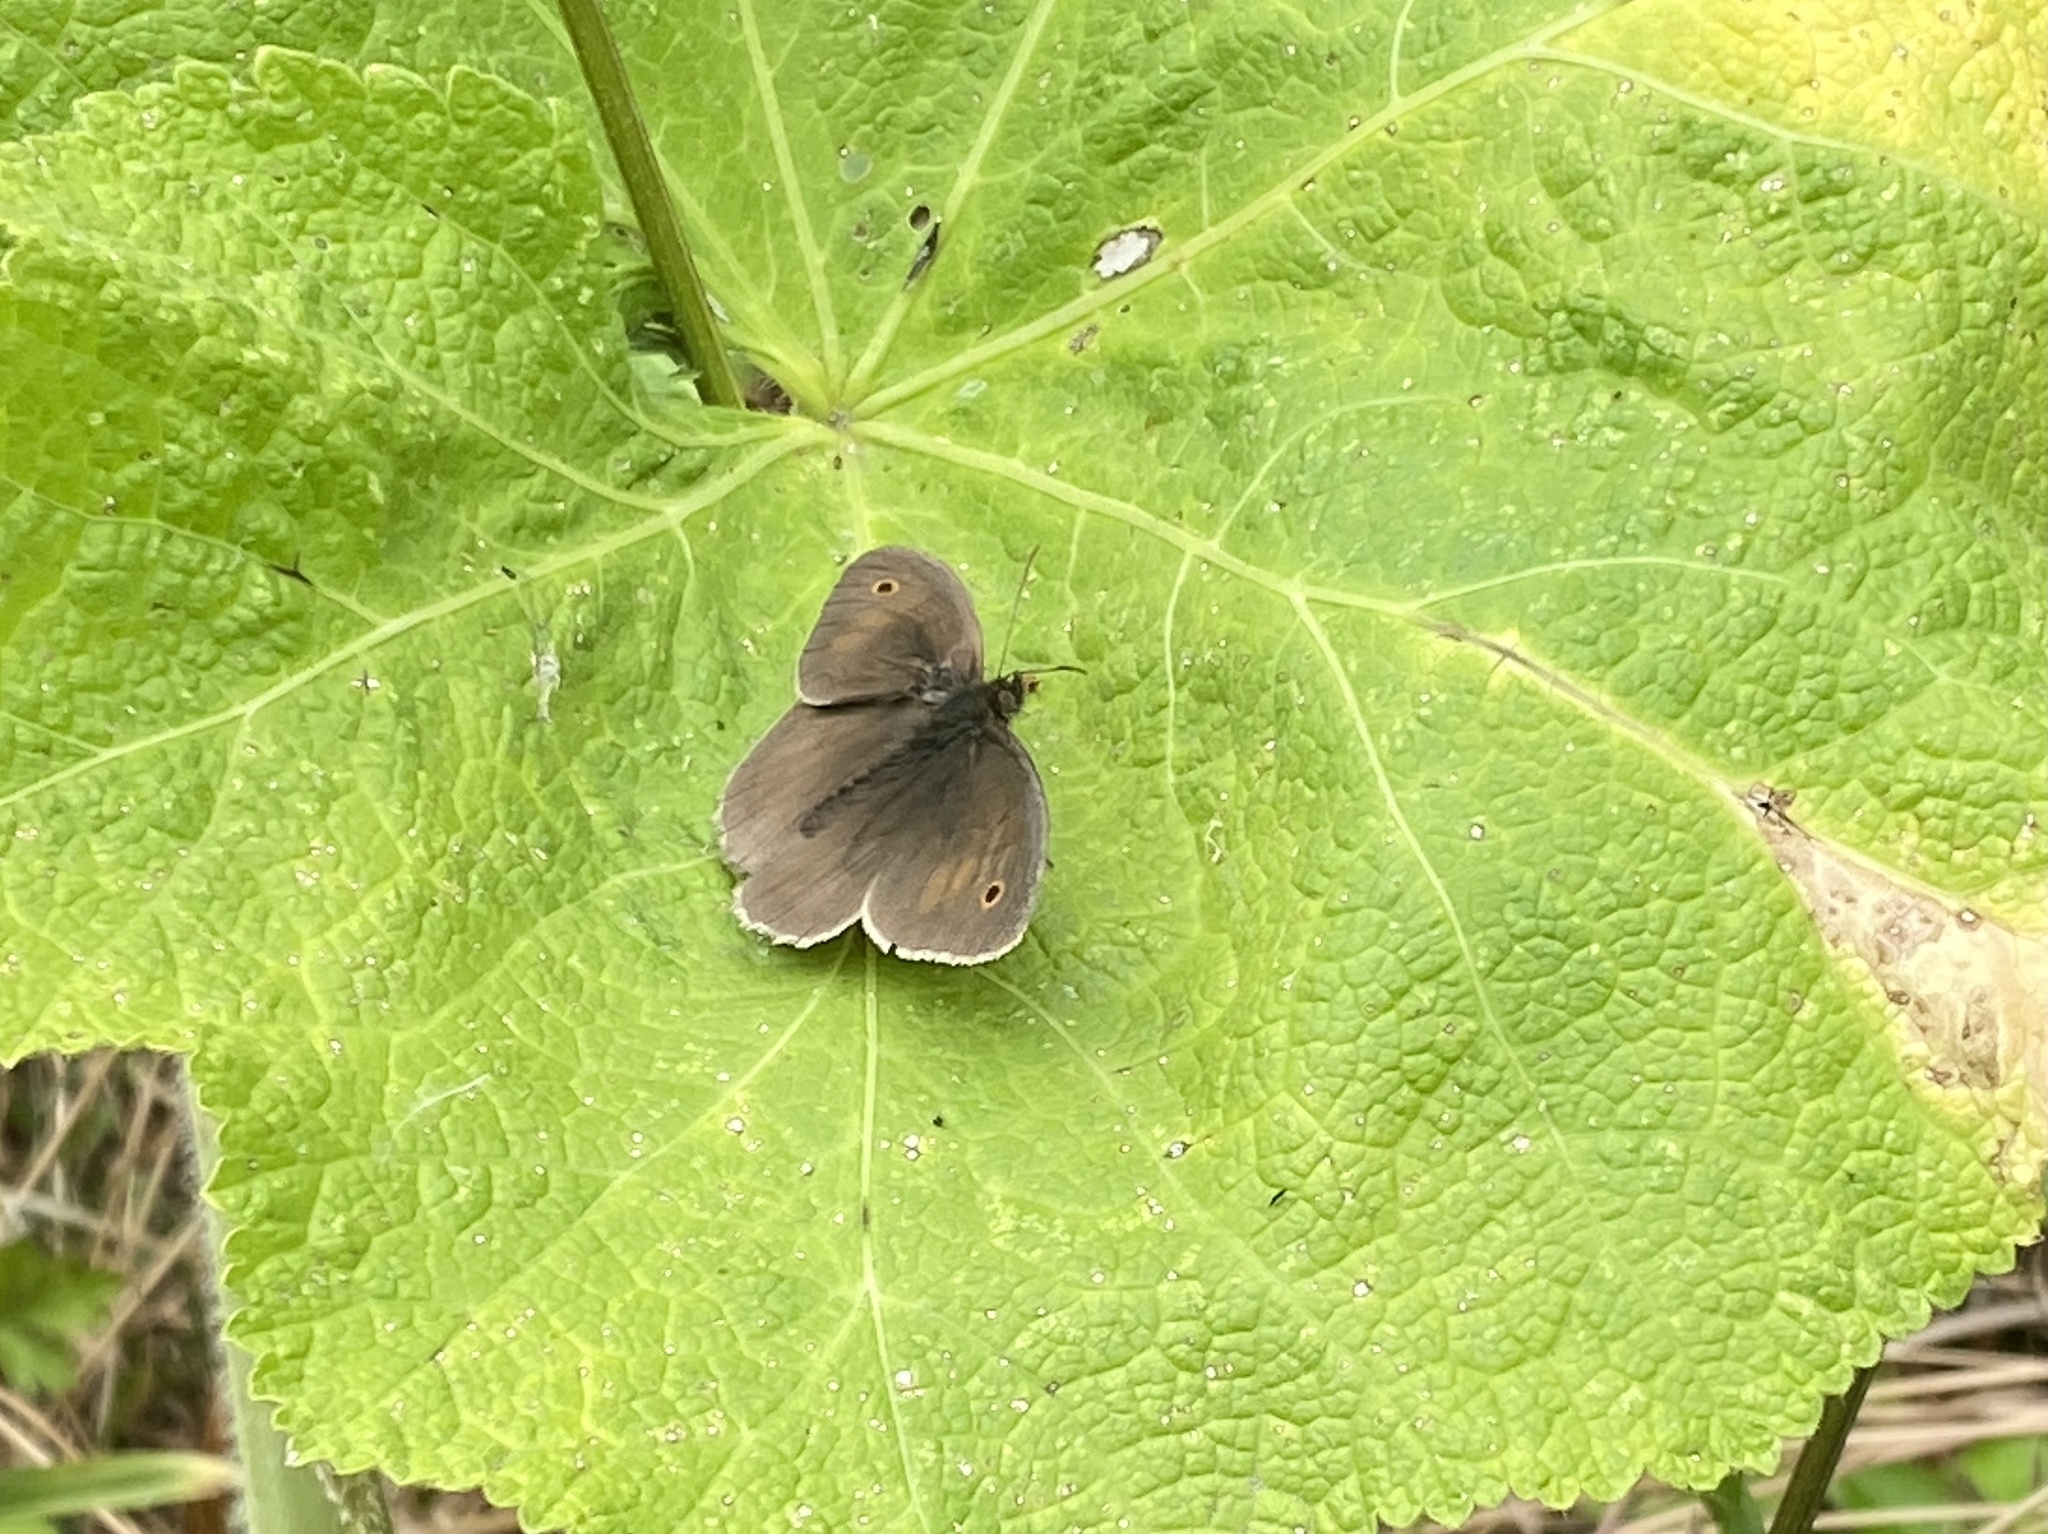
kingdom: Animalia
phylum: Arthropoda
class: Insecta
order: Lepidoptera
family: Nymphalidae
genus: Maniola
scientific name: Maniola jurtina
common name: Meadow brown
